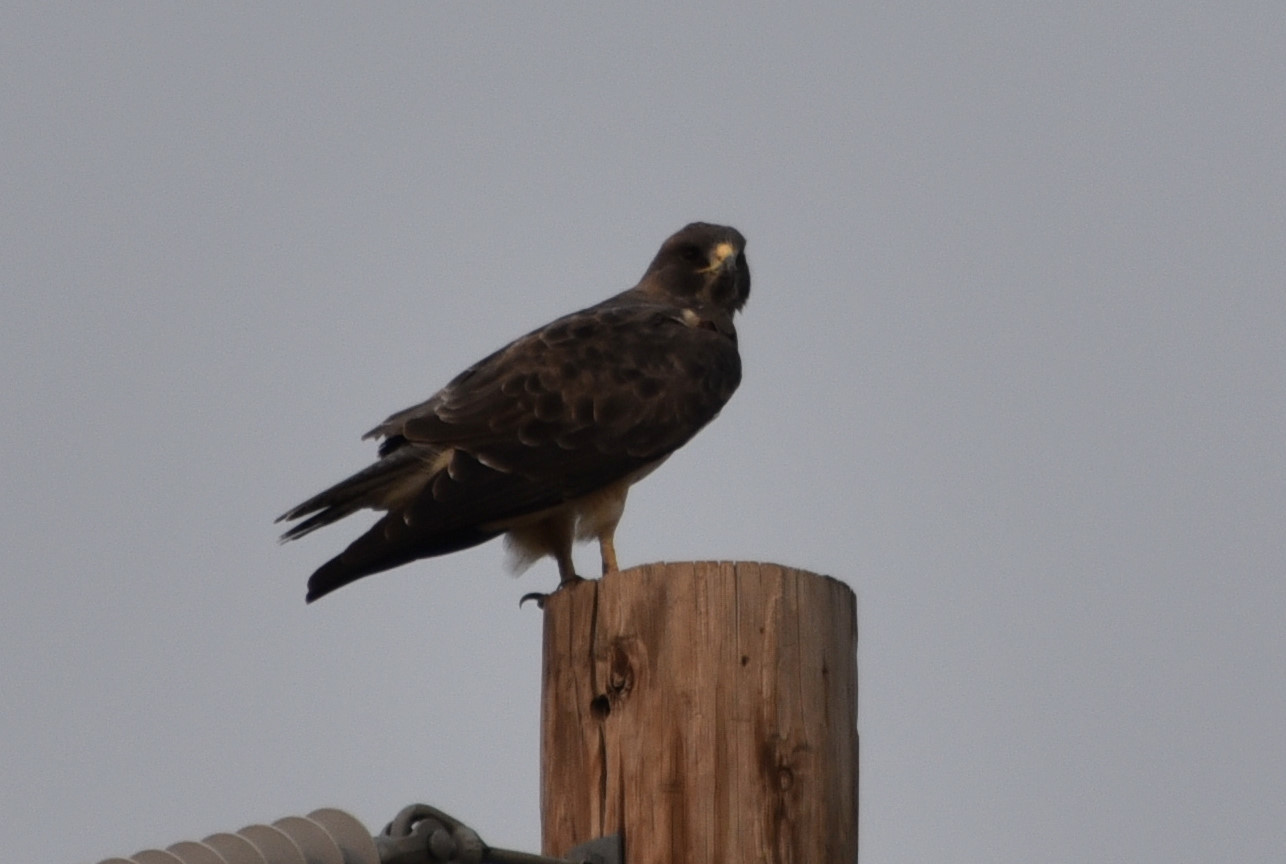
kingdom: Animalia
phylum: Chordata
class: Aves
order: Accipitriformes
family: Accipitridae
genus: Buteo
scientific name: Buteo swainsoni
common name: Swainson's hawk
